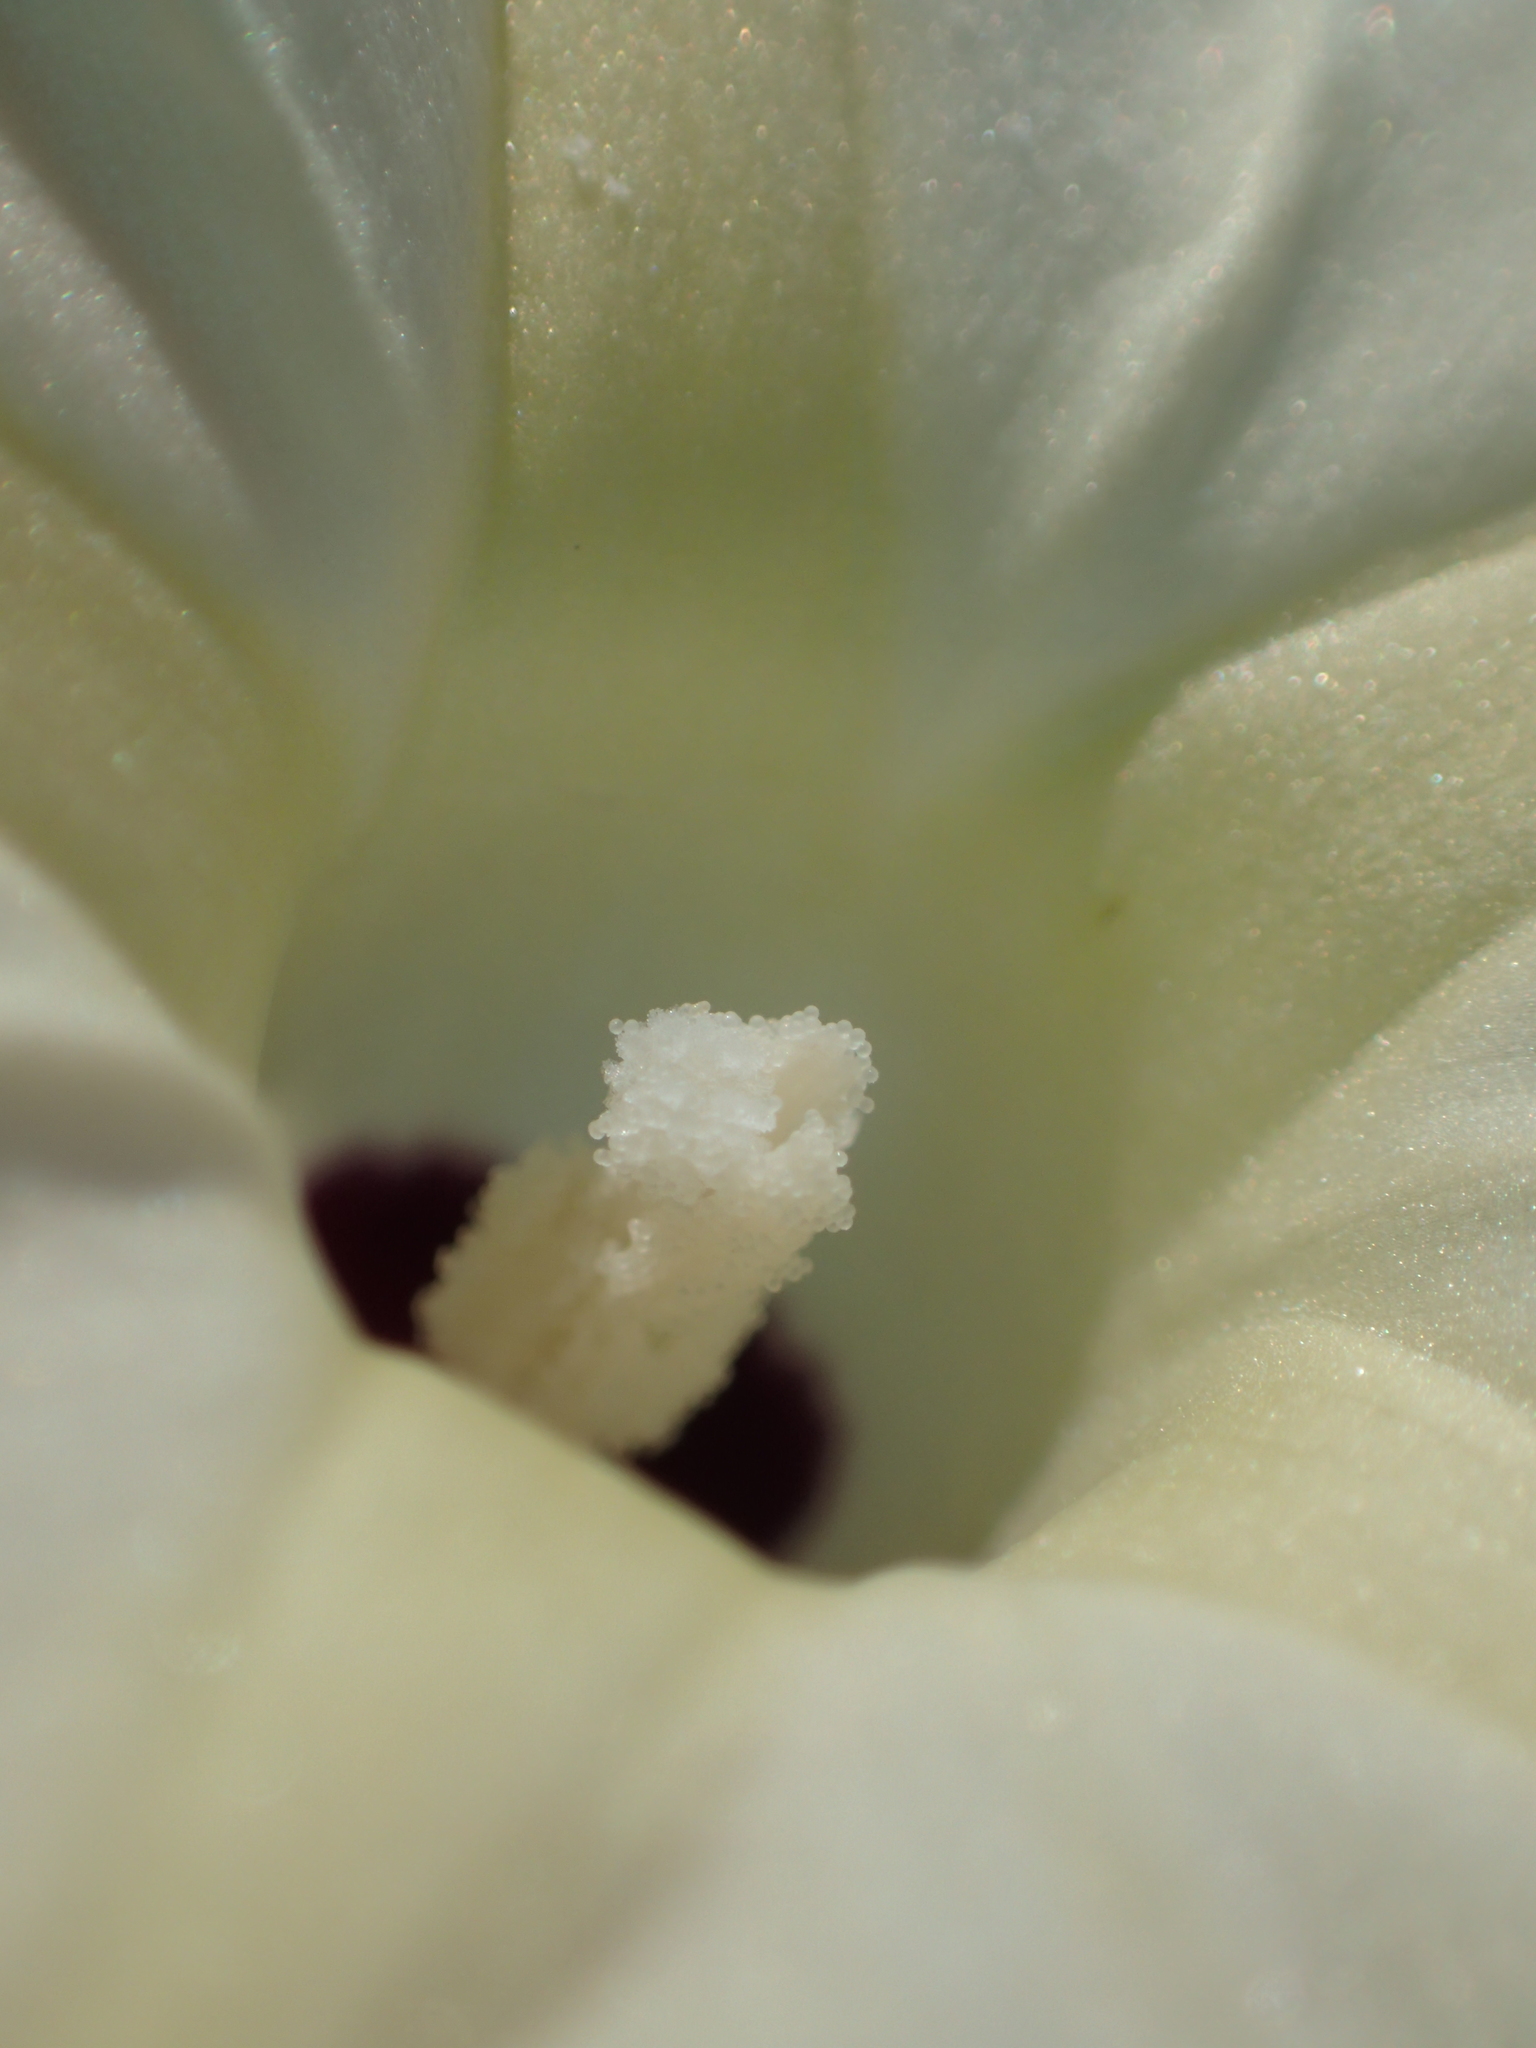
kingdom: Plantae
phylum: Tracheophyta
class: Magnoliopsida
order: Solanales
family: Convolvulaceae
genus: Ipomoea
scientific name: Ipomoea obscura
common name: Obscure morning-glory
